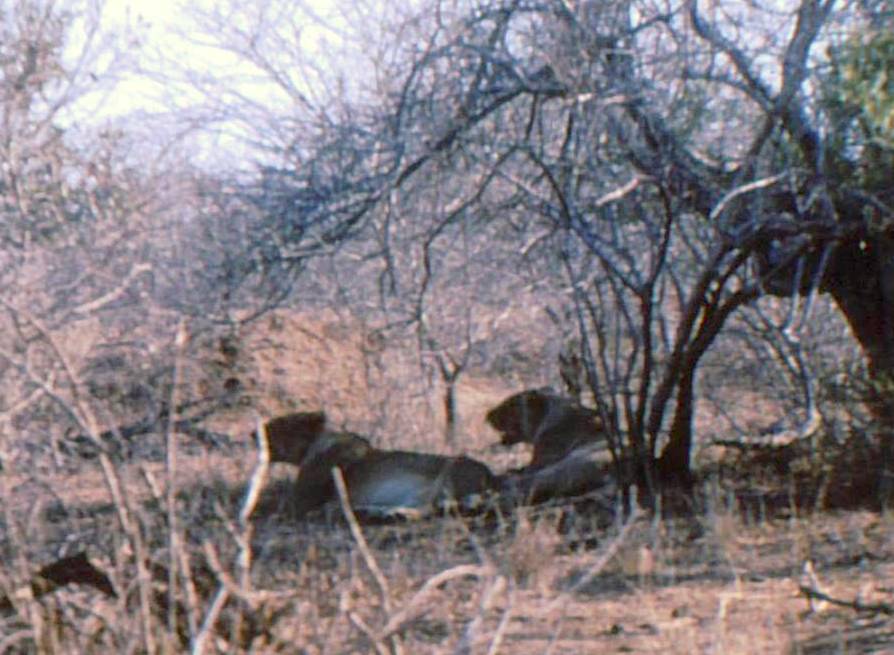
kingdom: Animalia
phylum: Chordata
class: Mammalia
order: Carnivora
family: Felidae
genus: Panthera
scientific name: Panthera leo
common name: Lion
